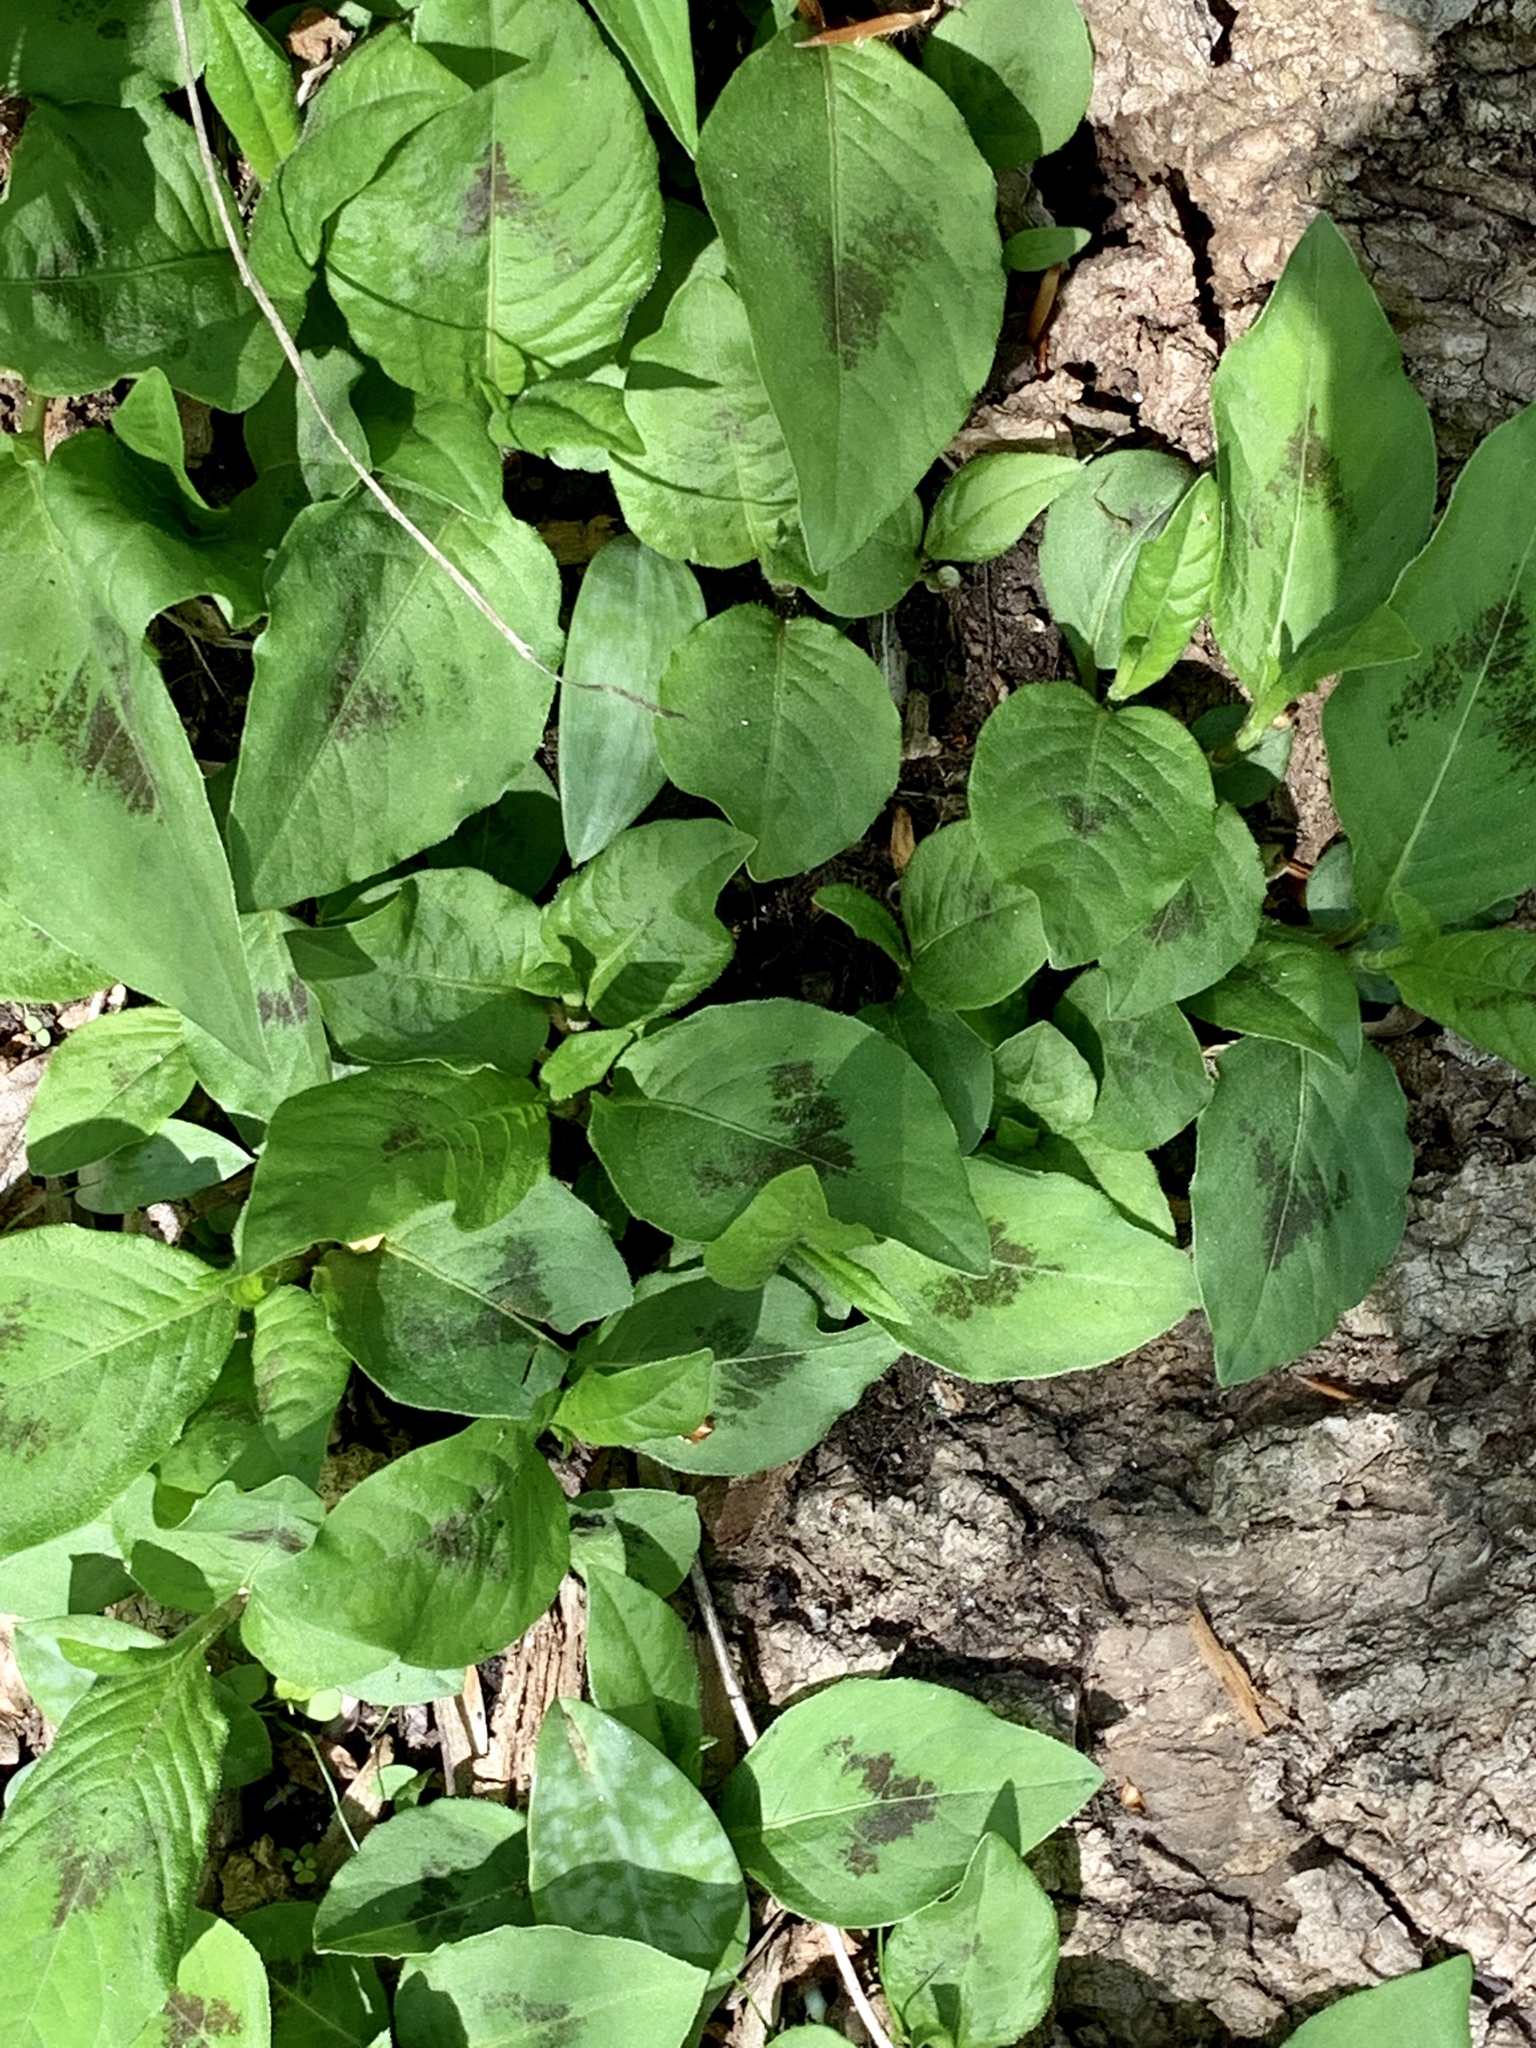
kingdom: Plantae
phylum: Tracheophyta
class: Magnoliopsida
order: Caryophyllales
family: Polygonaceae
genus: Persicaria
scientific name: Persicaria virginiana
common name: Jumpseed
